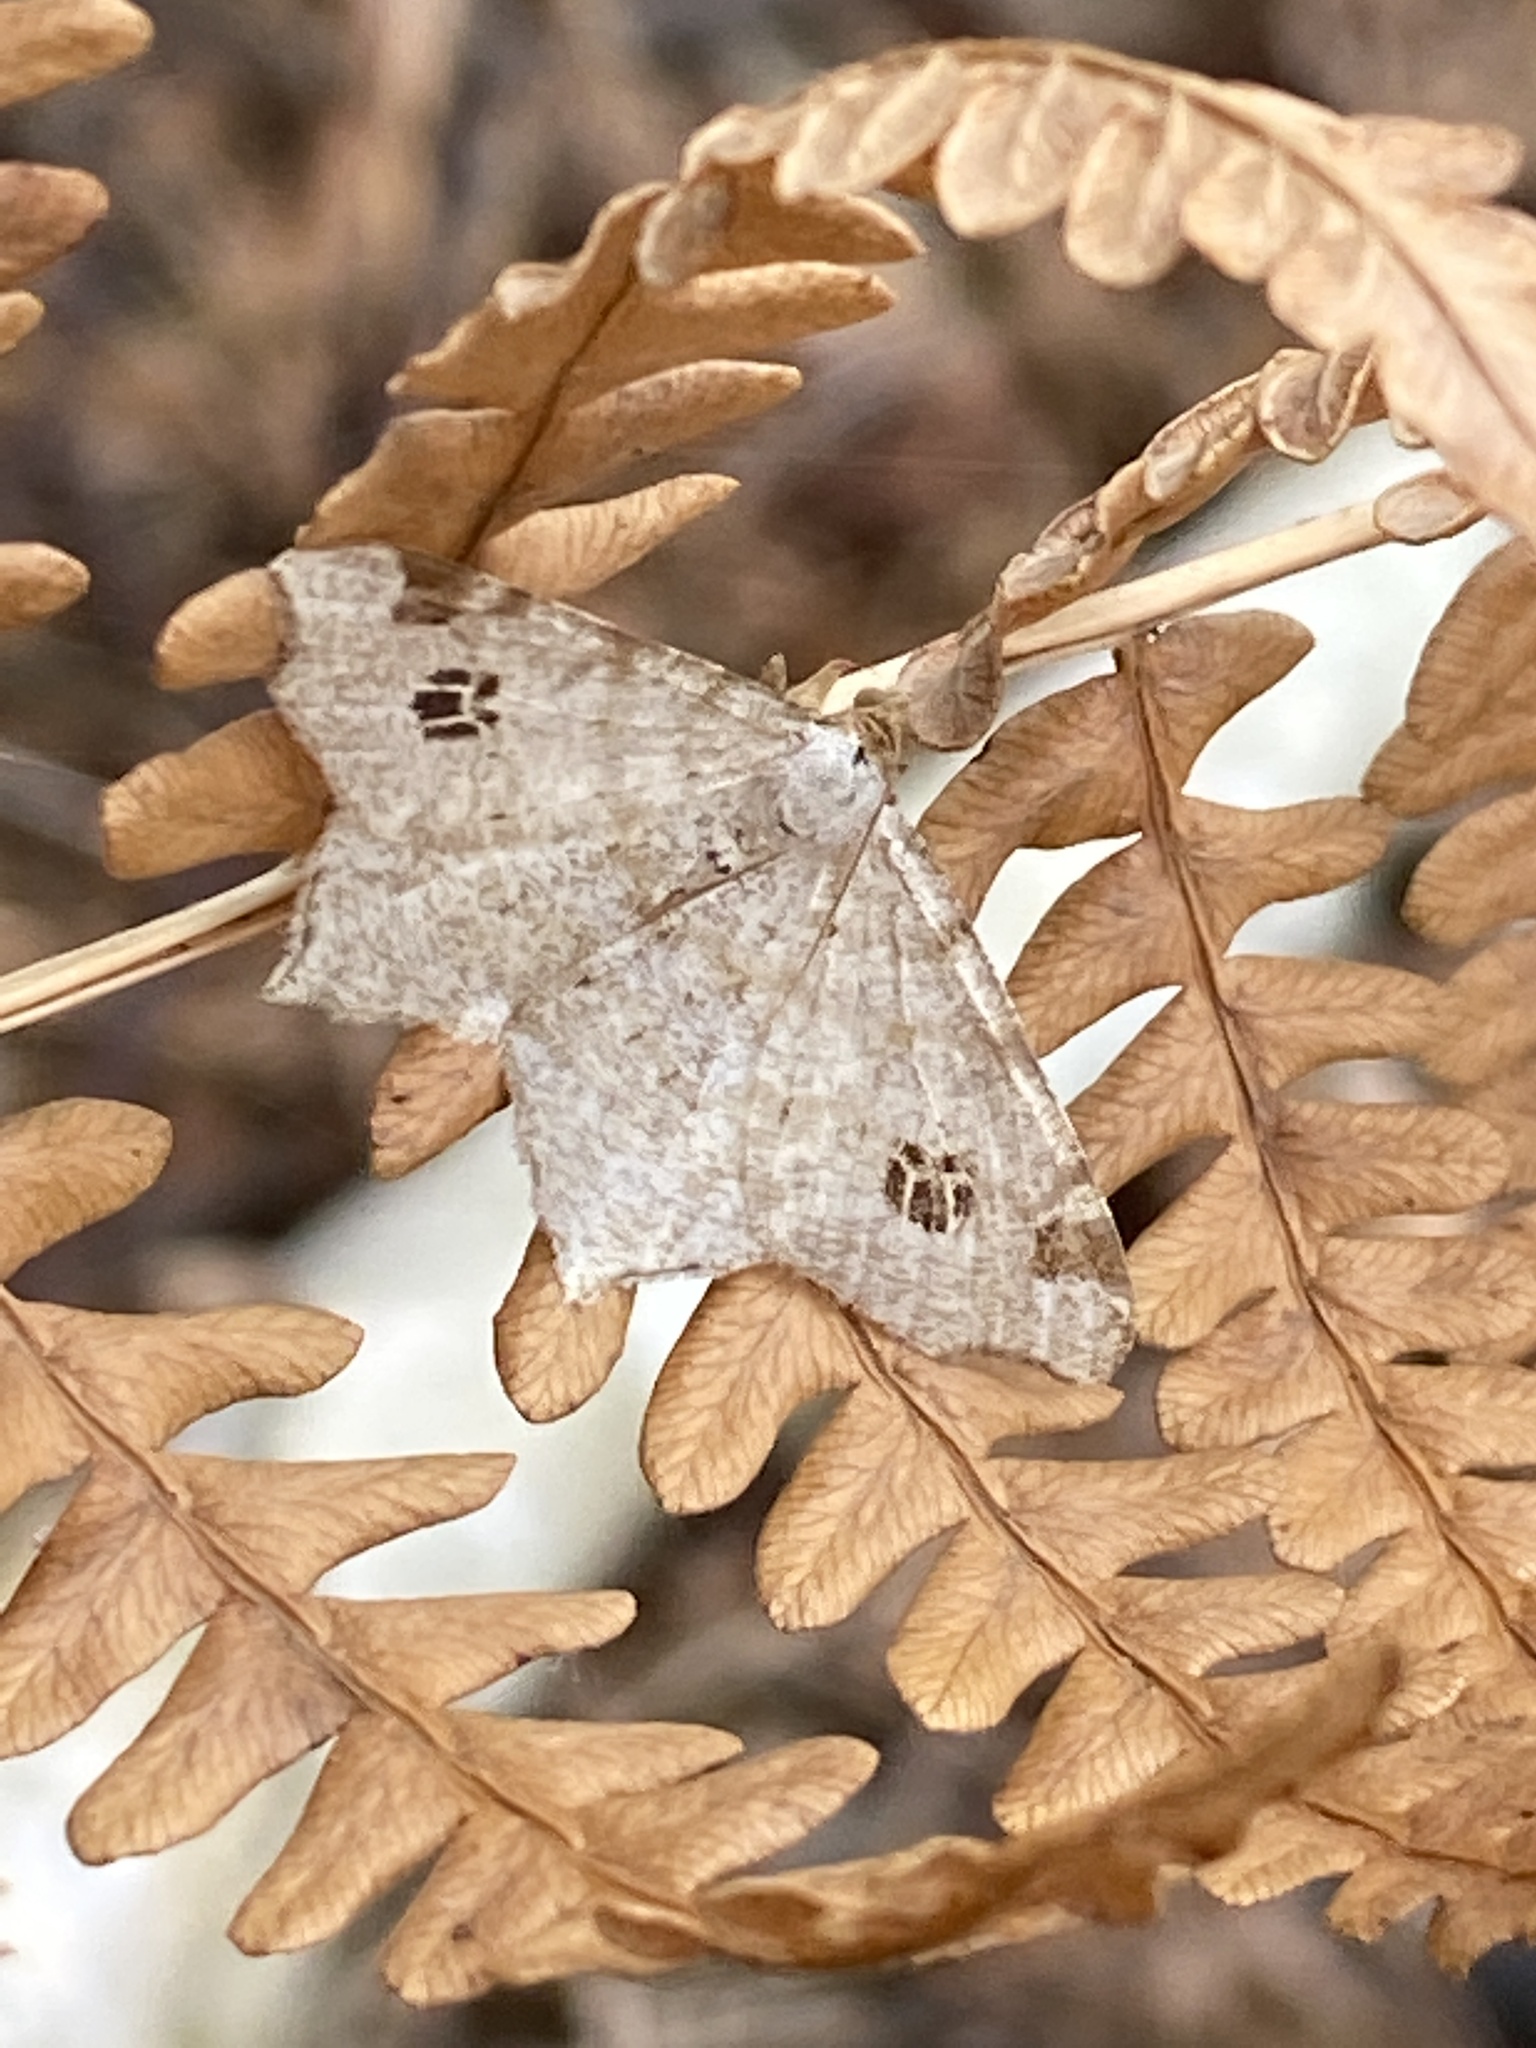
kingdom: Animalia
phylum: Arthropoda
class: Insecta
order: Lepidoptera
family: Geometridae
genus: Macaria
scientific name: Macaria notata
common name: Peacock moth
